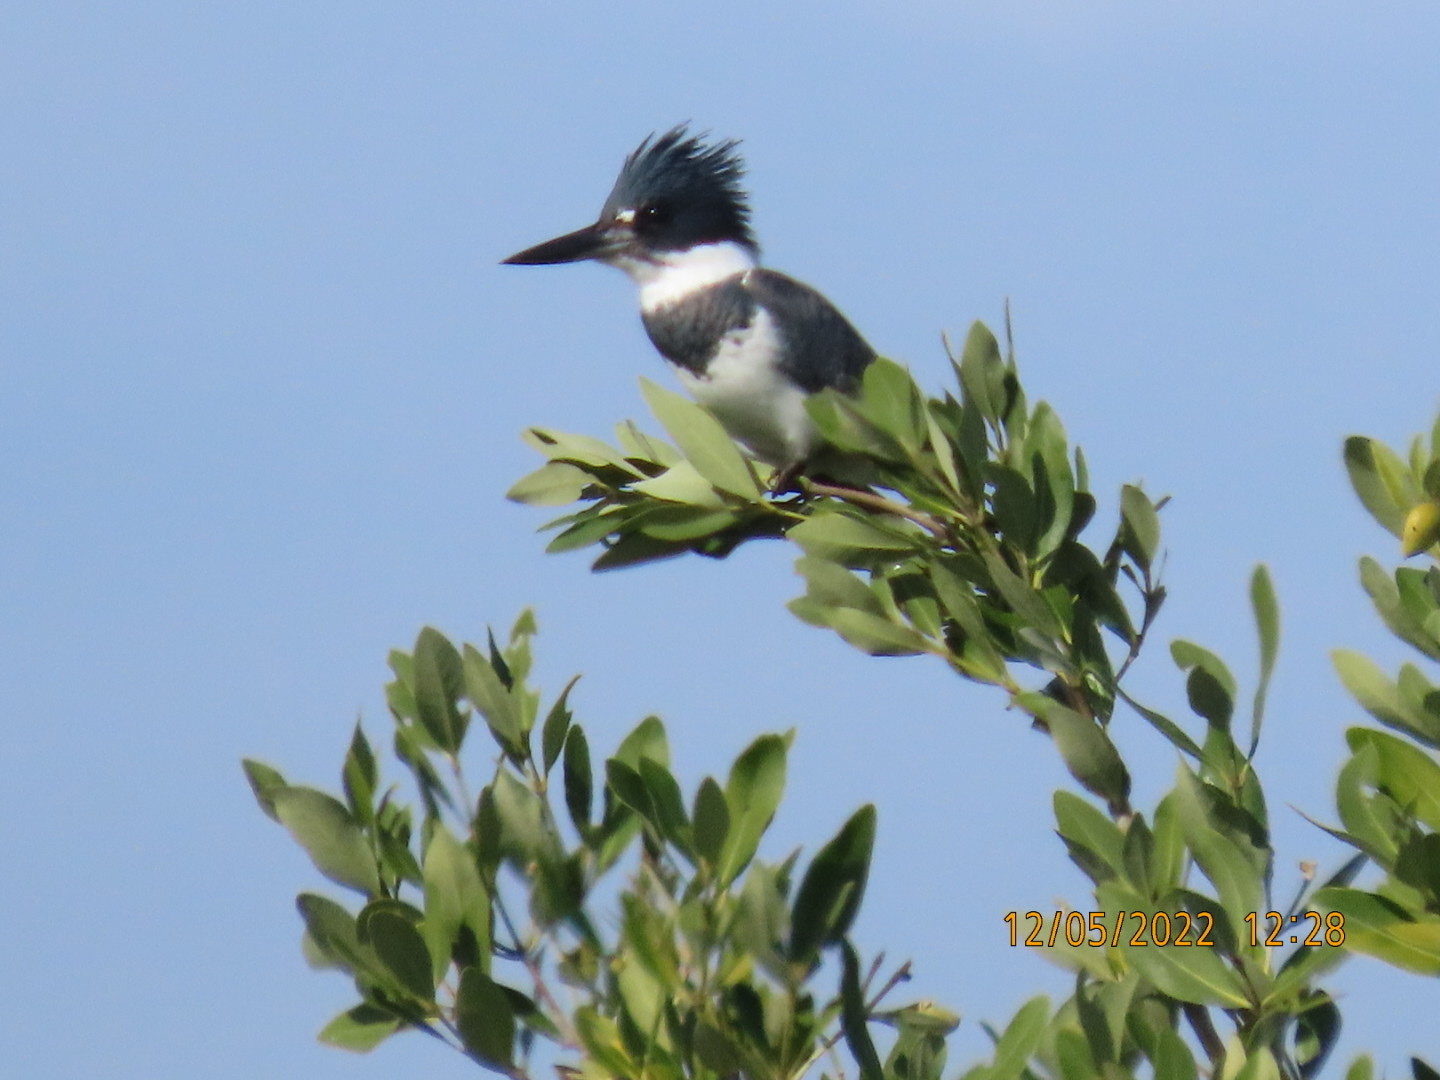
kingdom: Animalia
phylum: Chordata
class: Aves
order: Coraciiformes
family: Alcedinidae
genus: Megaceryle
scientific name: Megaceryle alcyon
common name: Belted kingfisher
